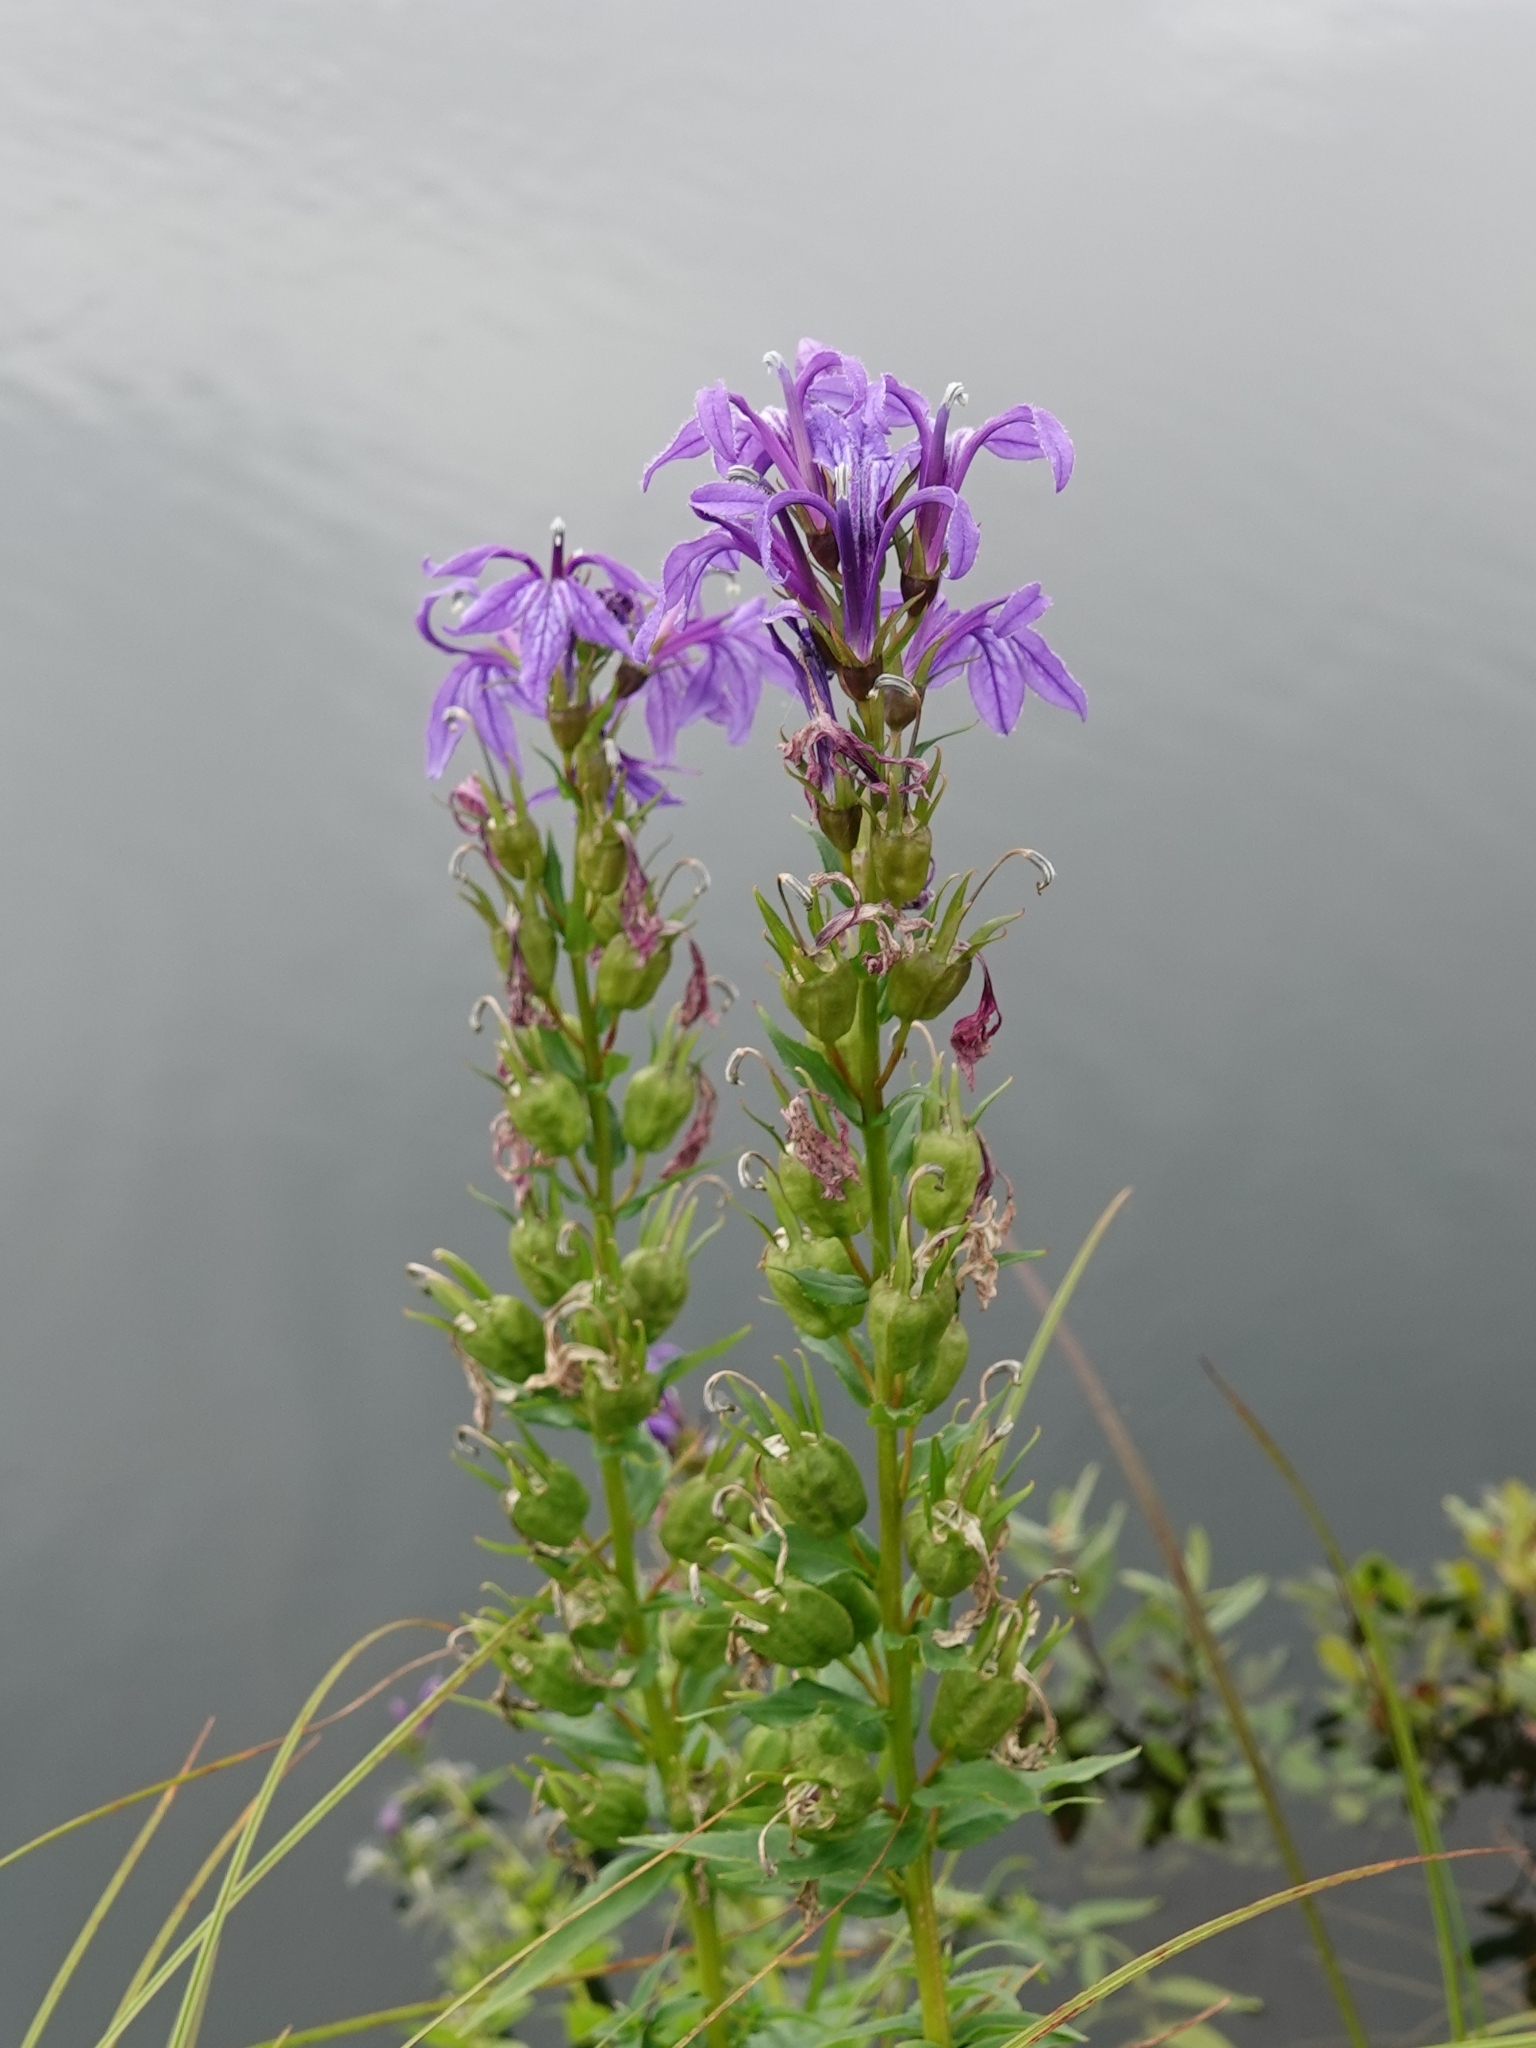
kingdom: Plantae
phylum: Tracheophyta
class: Magnoliopsida
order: Asterales
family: Campanulaceae
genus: Lobelia
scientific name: Lobelia sessilifolia
